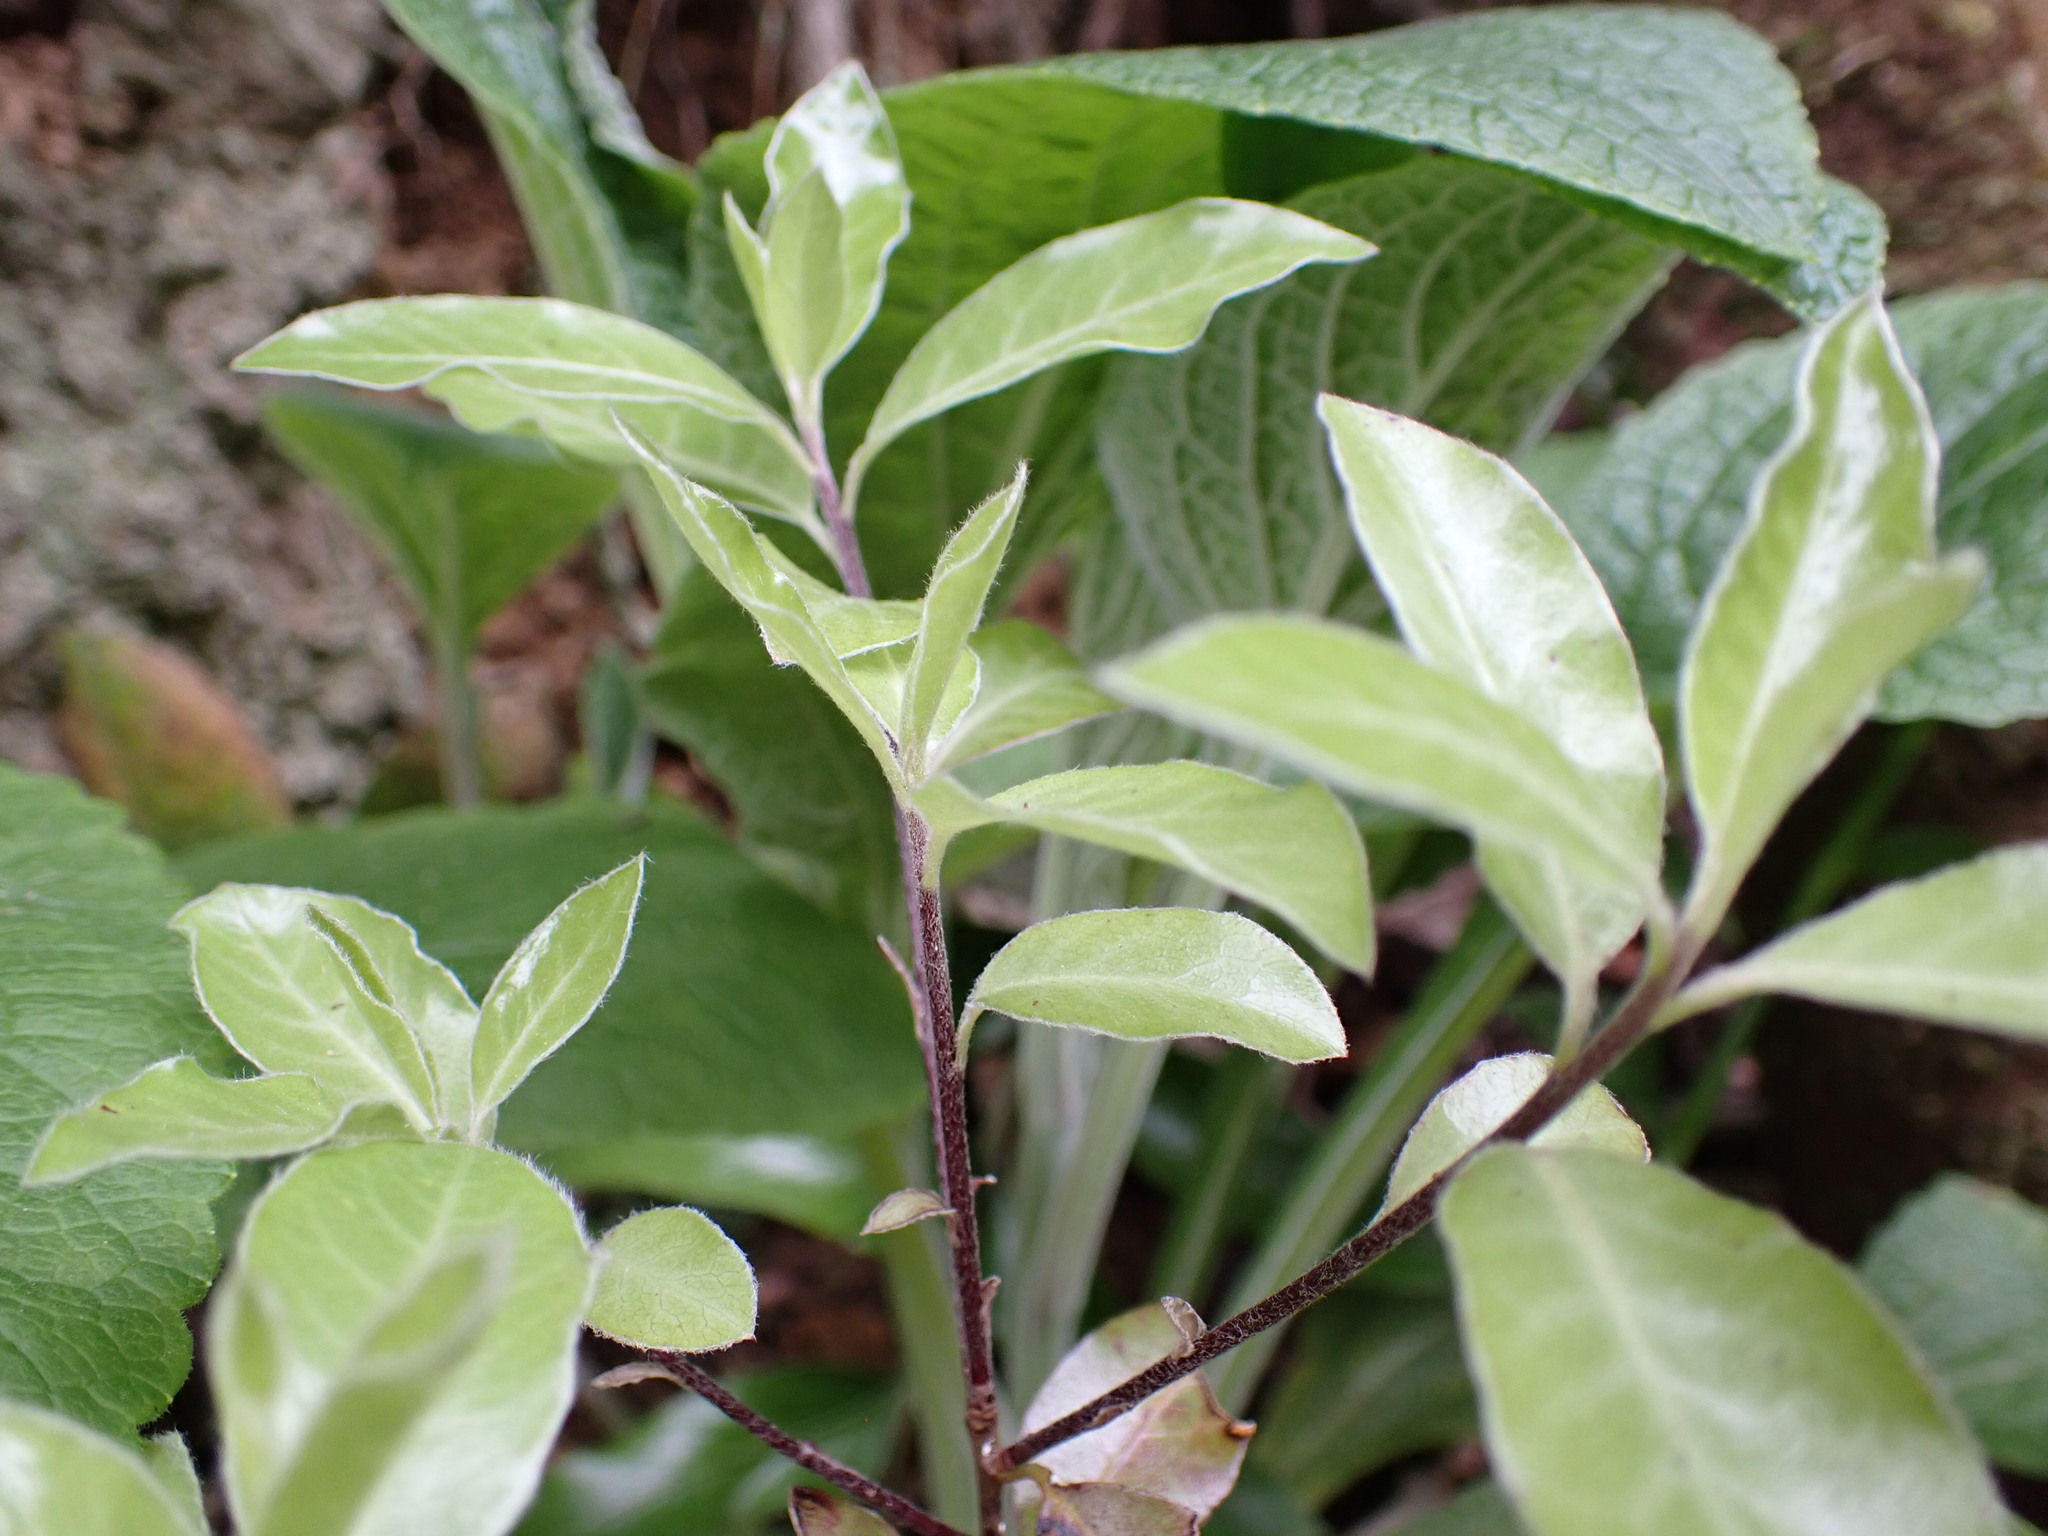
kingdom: Plantae
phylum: Tracheophyta
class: Magnoliopsida
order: Apiales
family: Pittosporaceae
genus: Pittosporum
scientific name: Pittosporum tenuifolium
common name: Kohuhu
